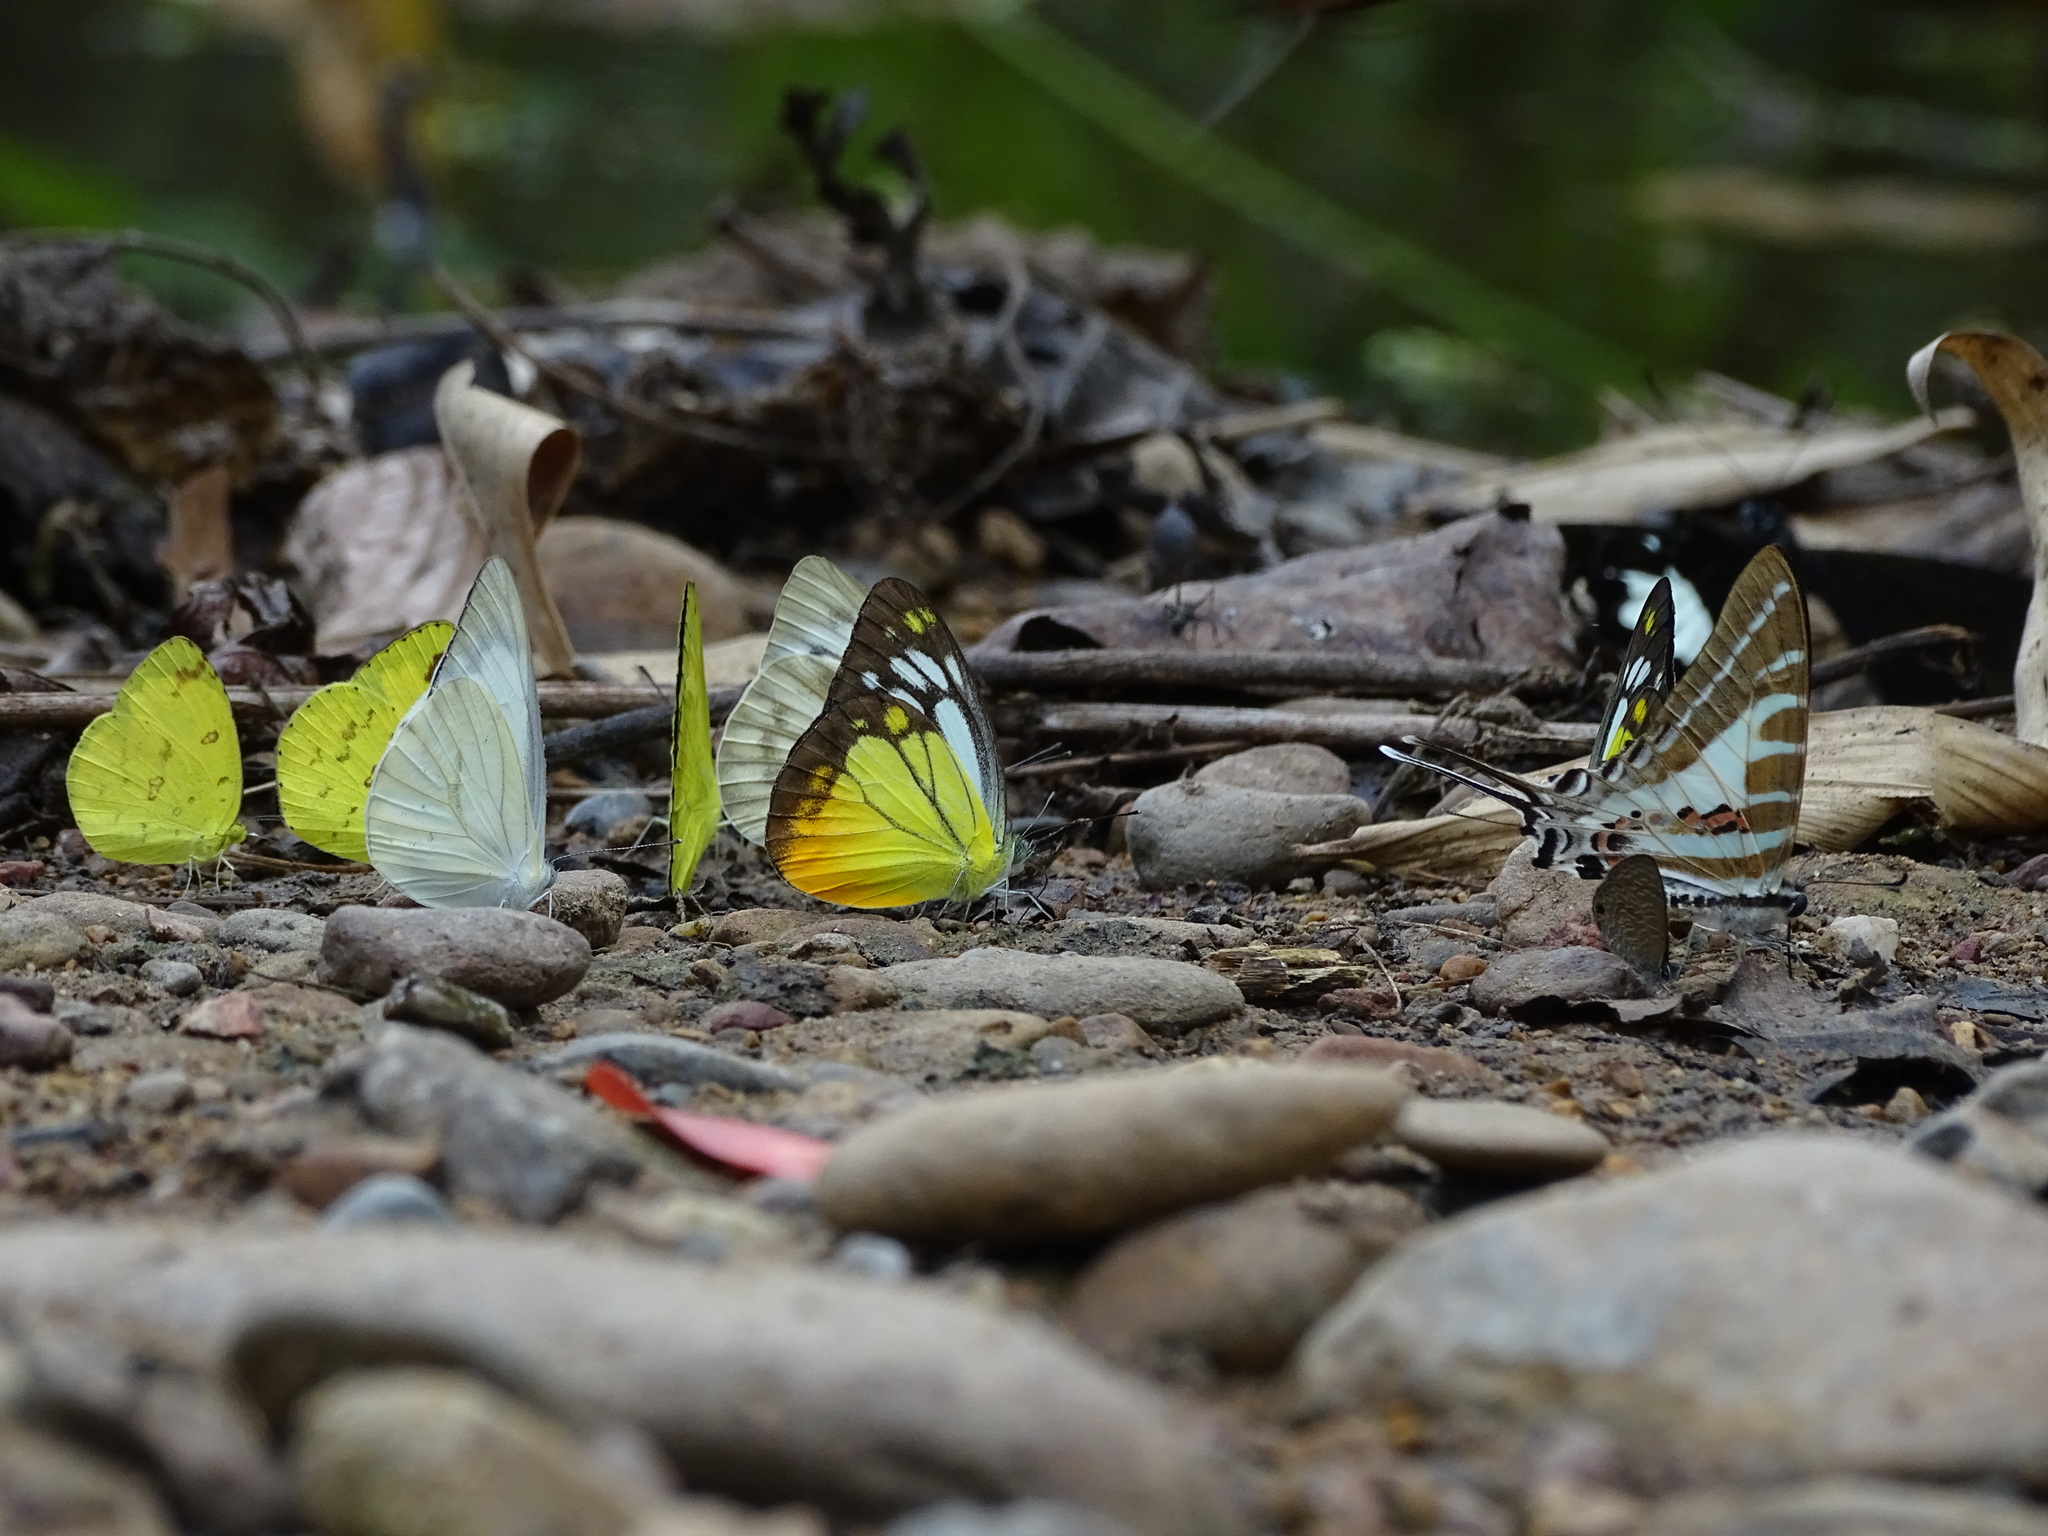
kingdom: Animalia
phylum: Arthropoda
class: Insecta
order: Lepidoptera
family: Pieridae
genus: Cepora
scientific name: Cepora iudith
